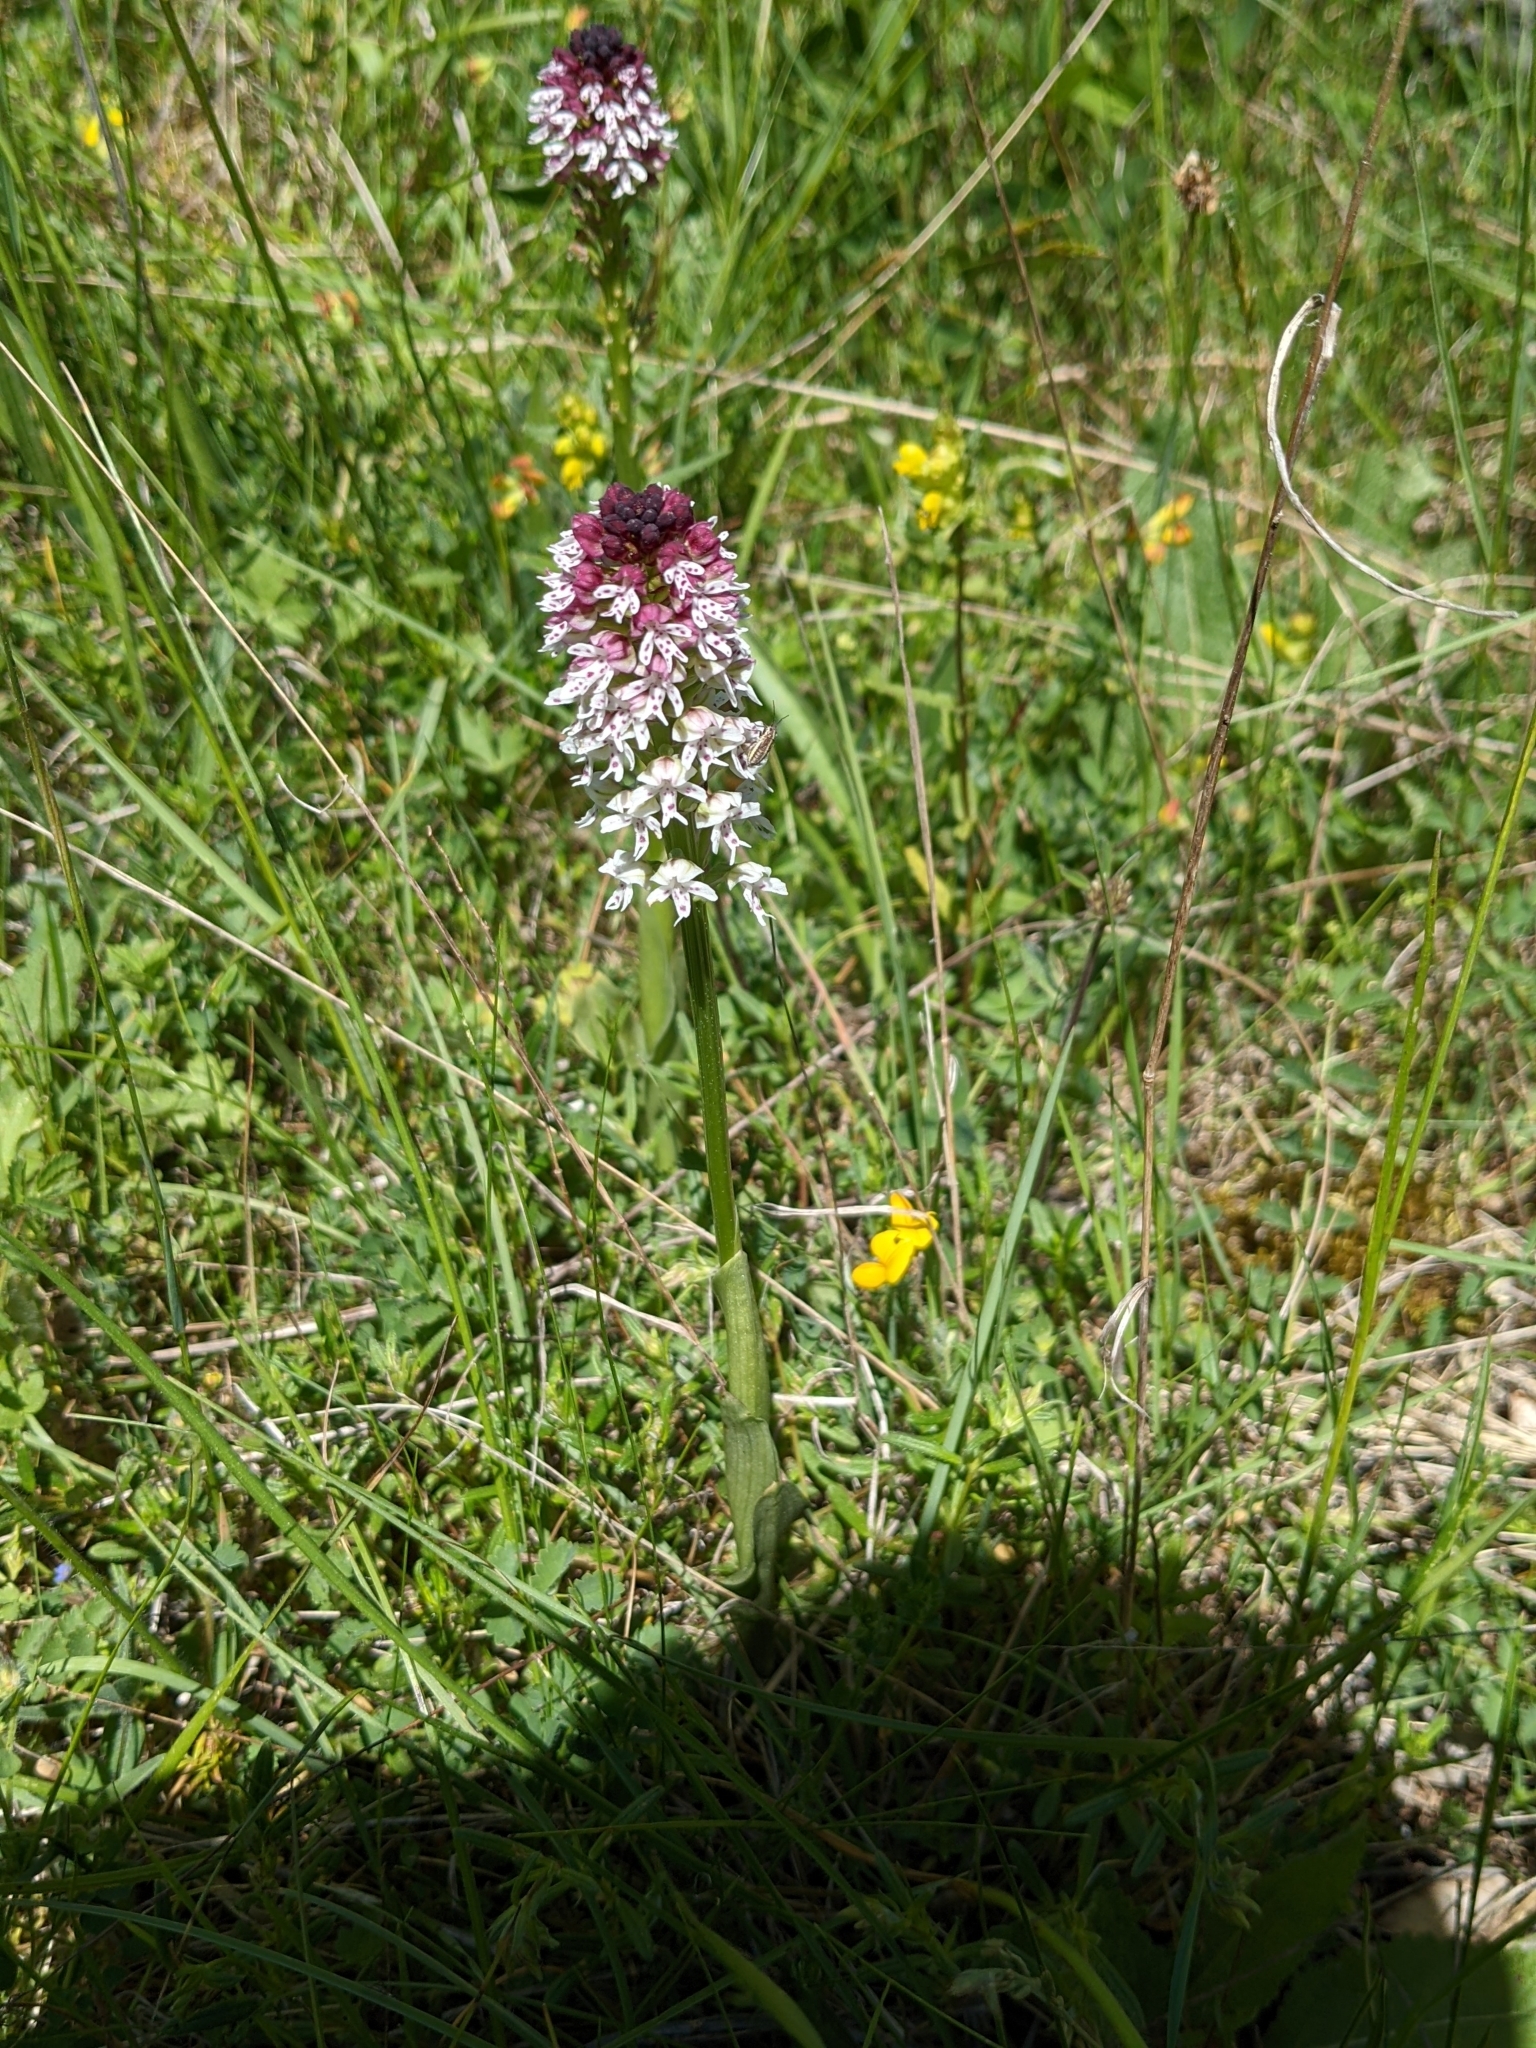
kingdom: Plantae
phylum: Tracheophyta
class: Liliopsida
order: Asparagales
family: Orchidaceae
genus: Neotinea
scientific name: Neotinea ustulata
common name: Burnt orchid
